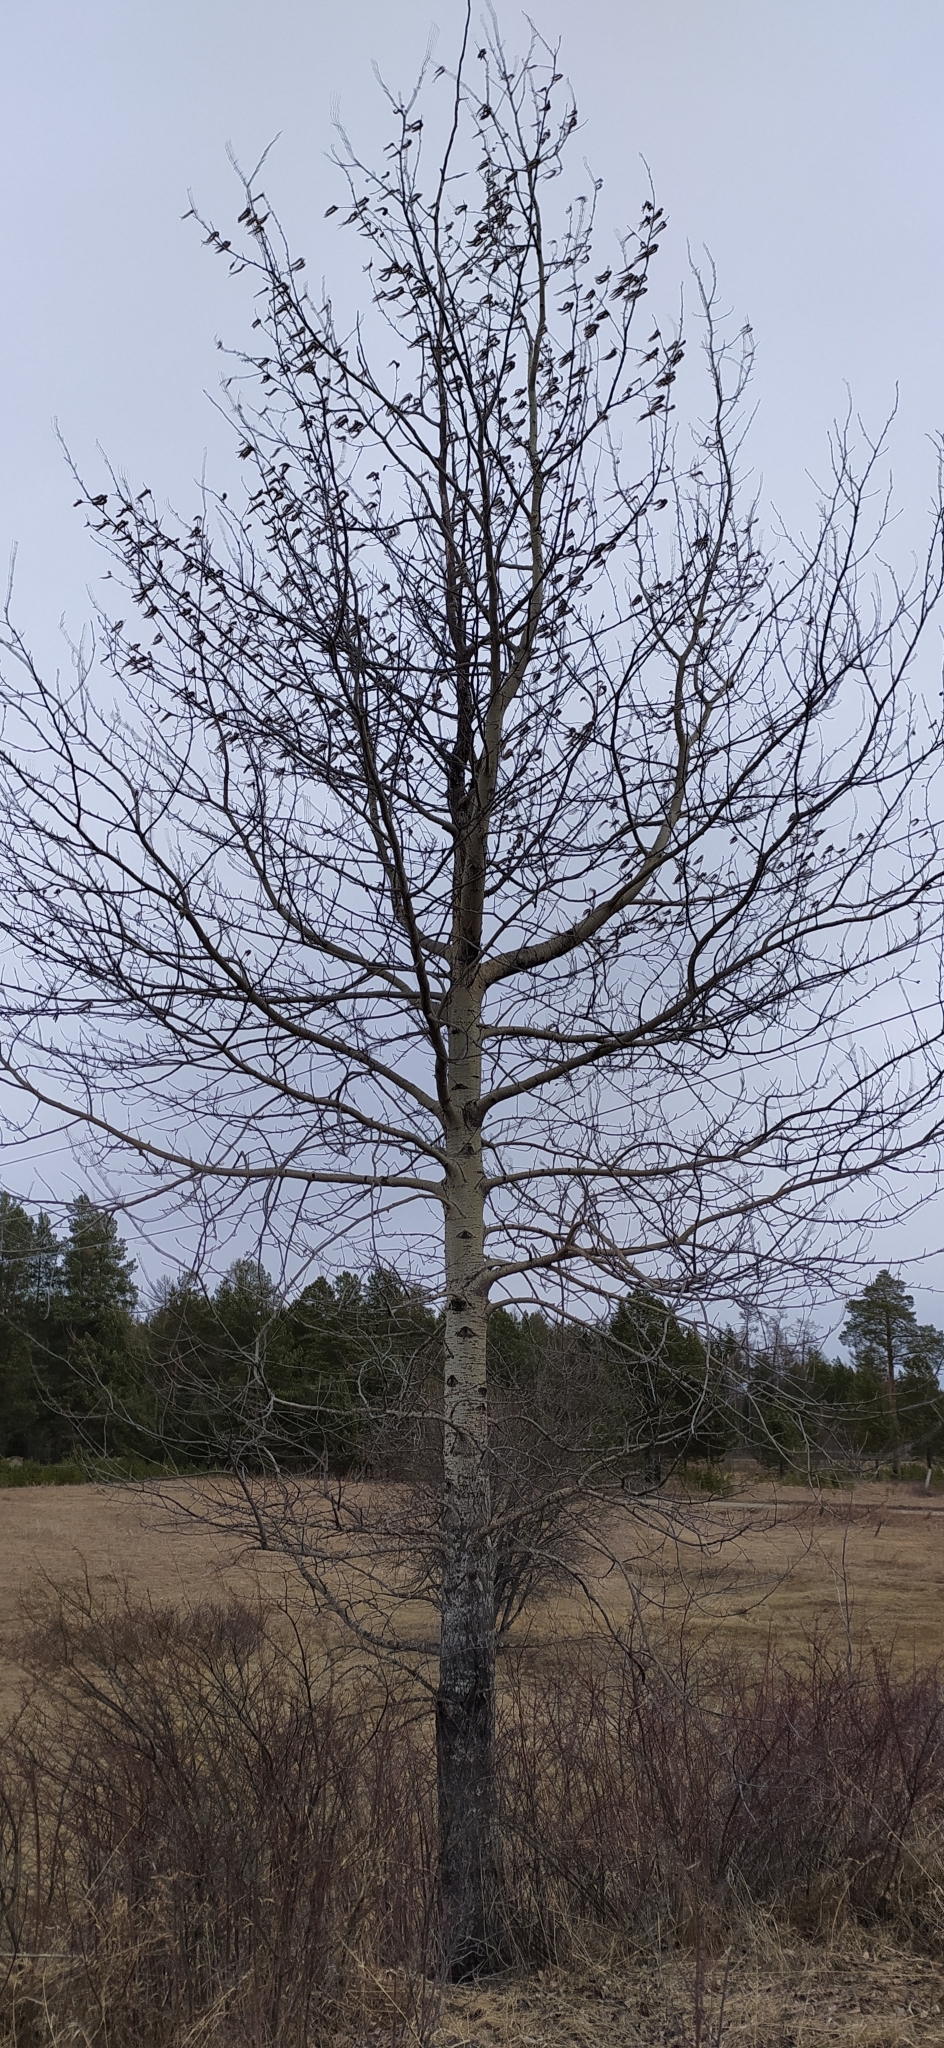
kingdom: Plantae
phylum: Tracheophyta
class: Magnoliopsida
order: Malpighiales
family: Salicaceae
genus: Populus
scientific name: Populus tremula
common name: European aspen
